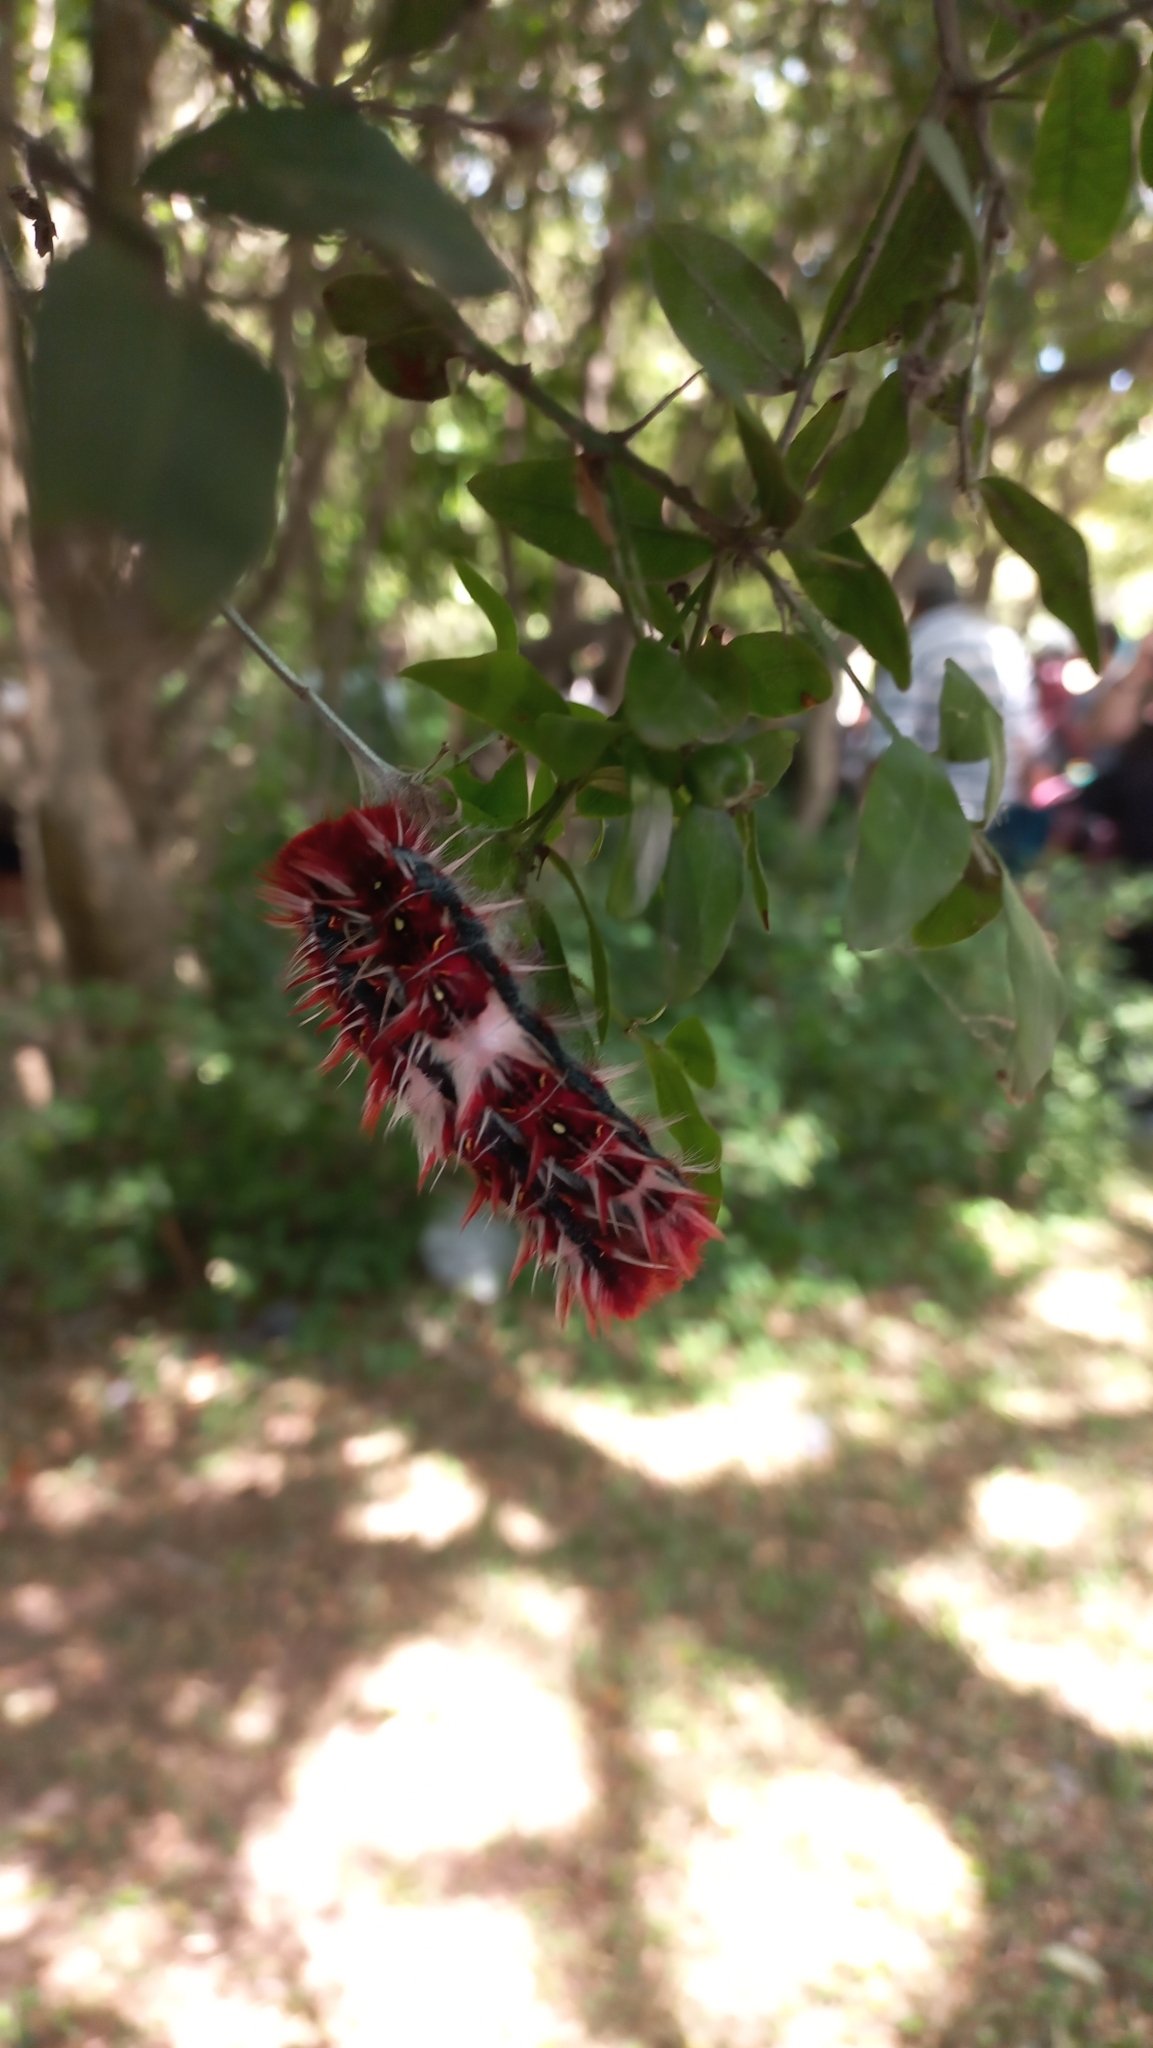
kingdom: Animalia
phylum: Arthropoda
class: Insecta
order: Lepidoptera
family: Nymphalidae
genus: Morpho
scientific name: Morpho epistrophus
